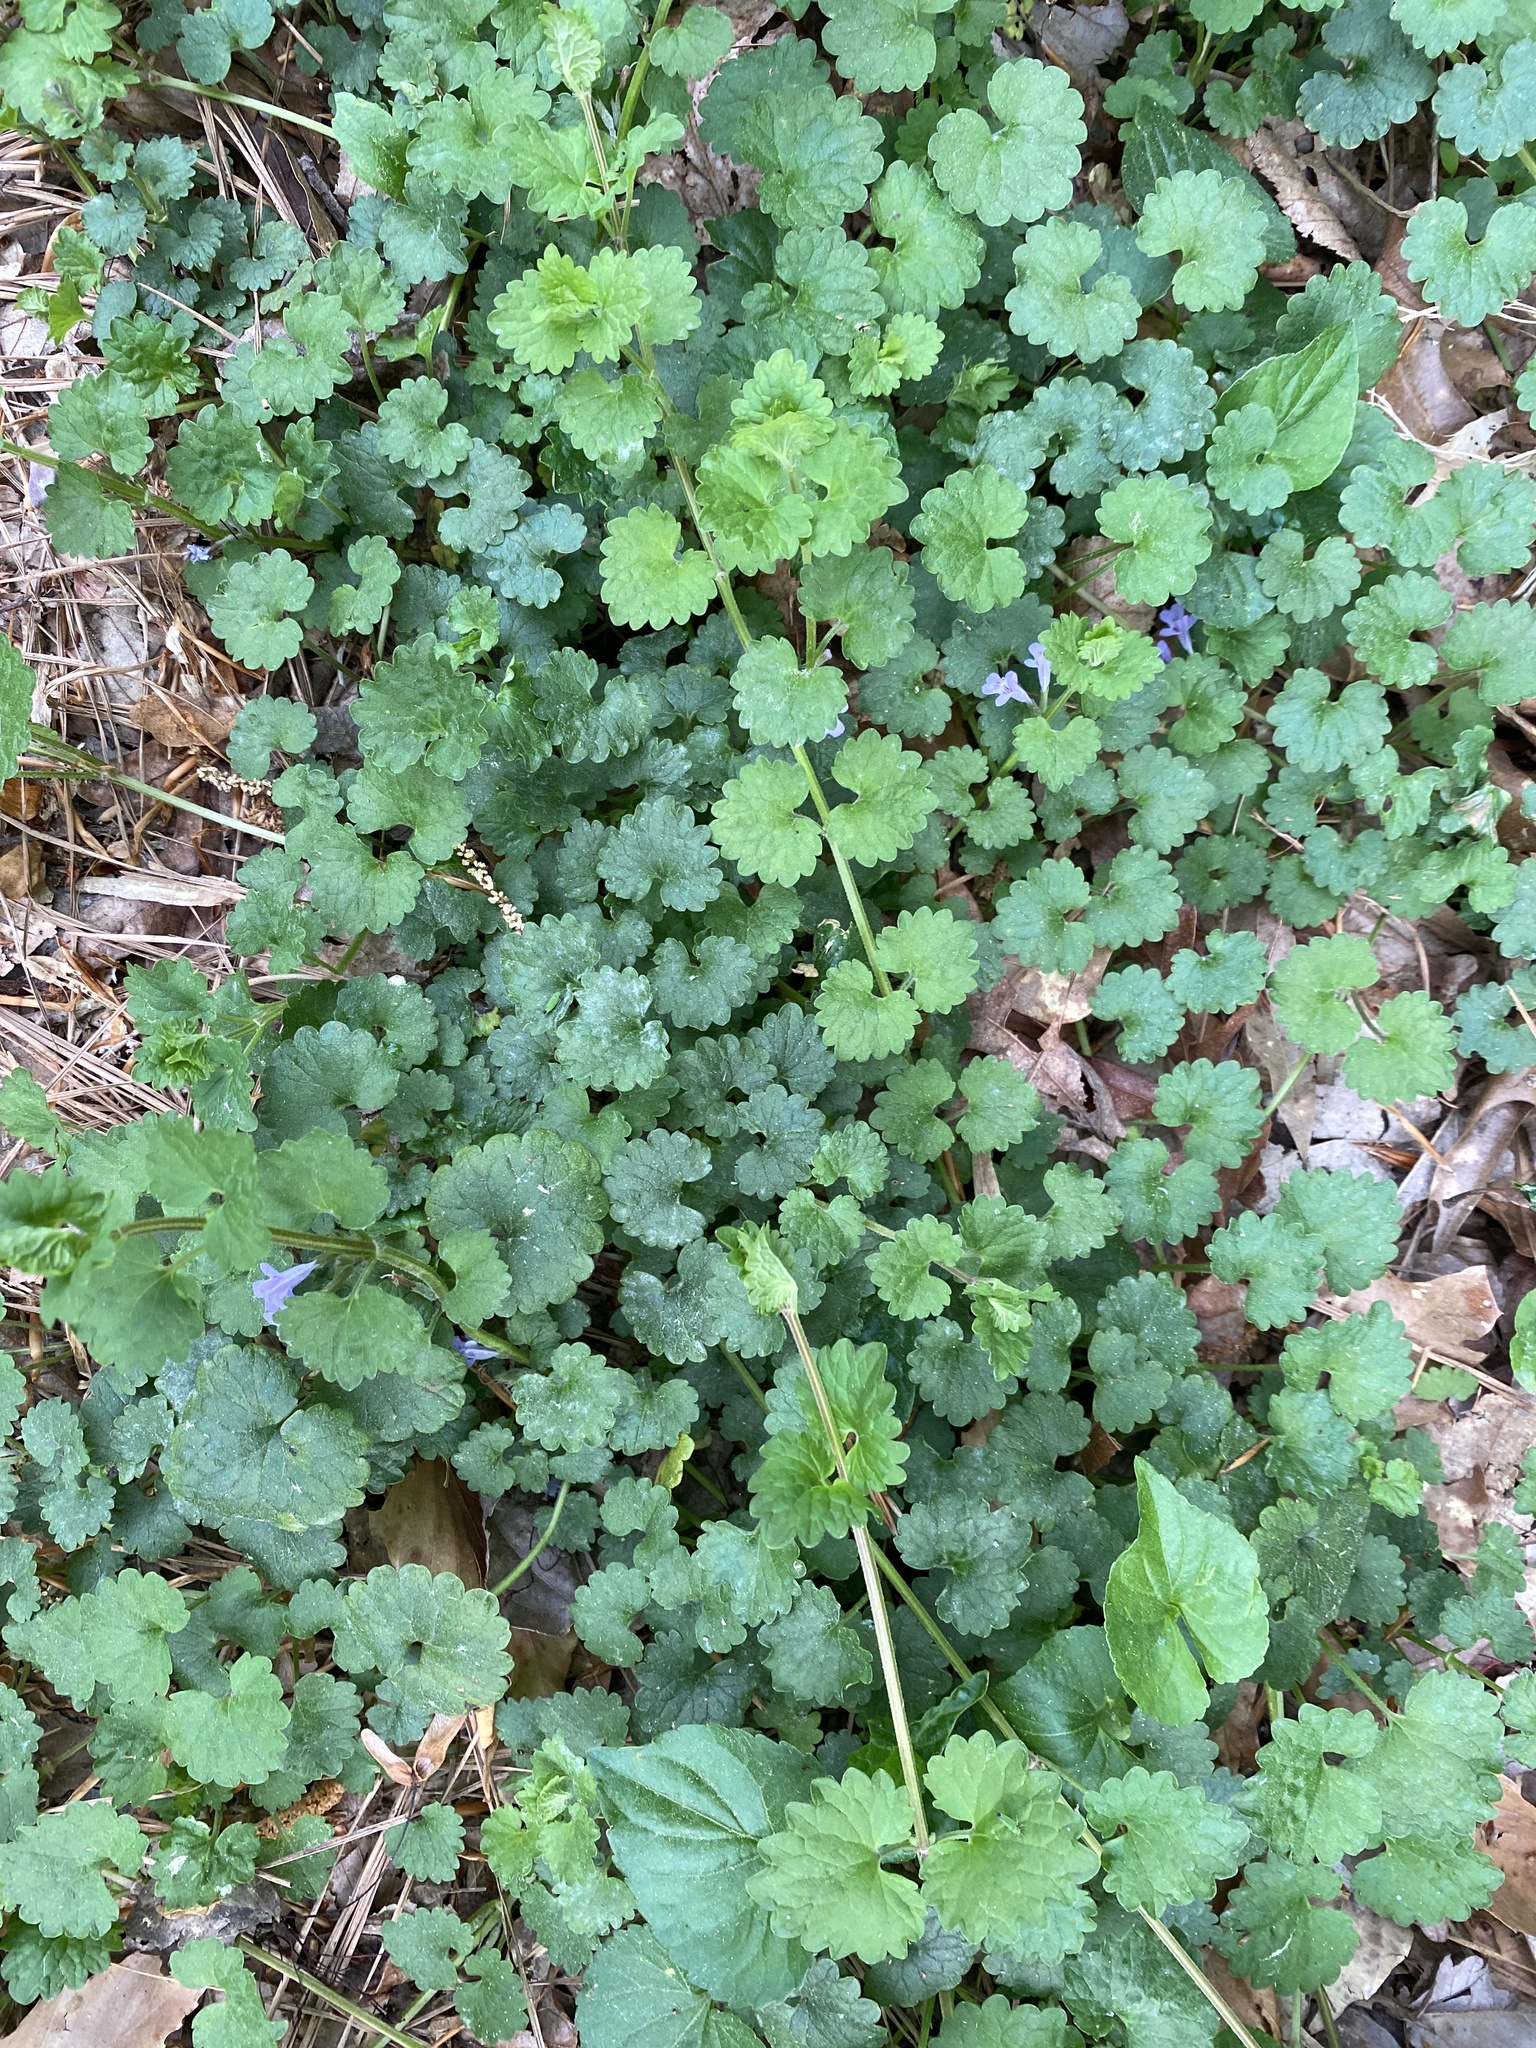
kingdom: Plantae
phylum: Tracheophyta
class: Magnoliopsida
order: Lamiales
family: Lamiaceae
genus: Glechoma
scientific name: Glechoma hederacea
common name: Ground ivy
